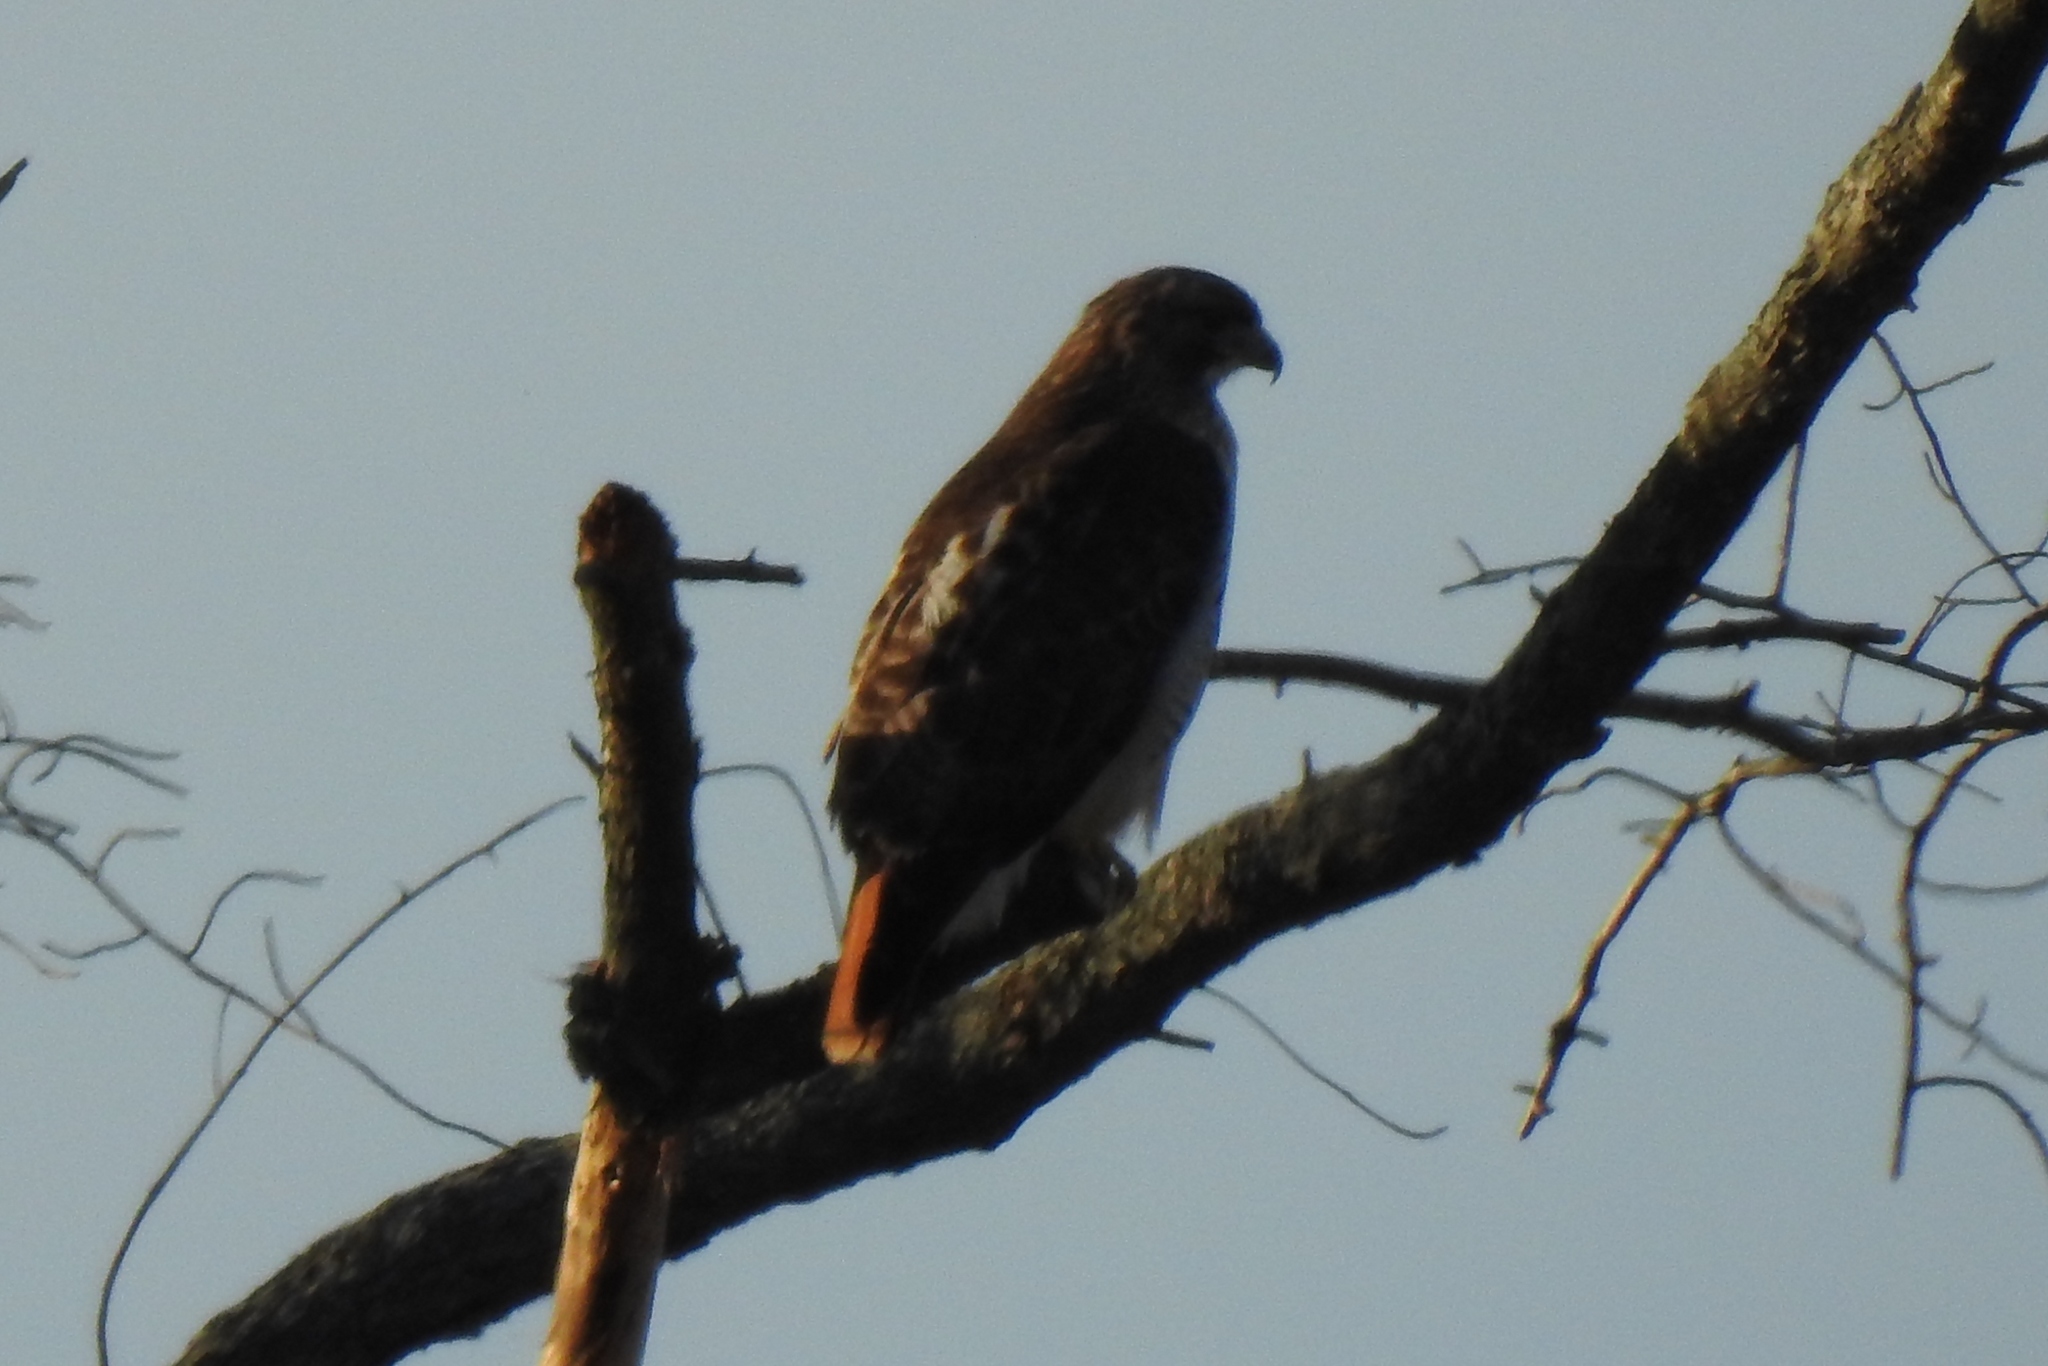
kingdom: Animalia
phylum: Chordata
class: Aves
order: Accipitriformes
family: Accipitridae
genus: Buteo
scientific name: Buteo jamaicensis
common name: Red-tailed hawk
